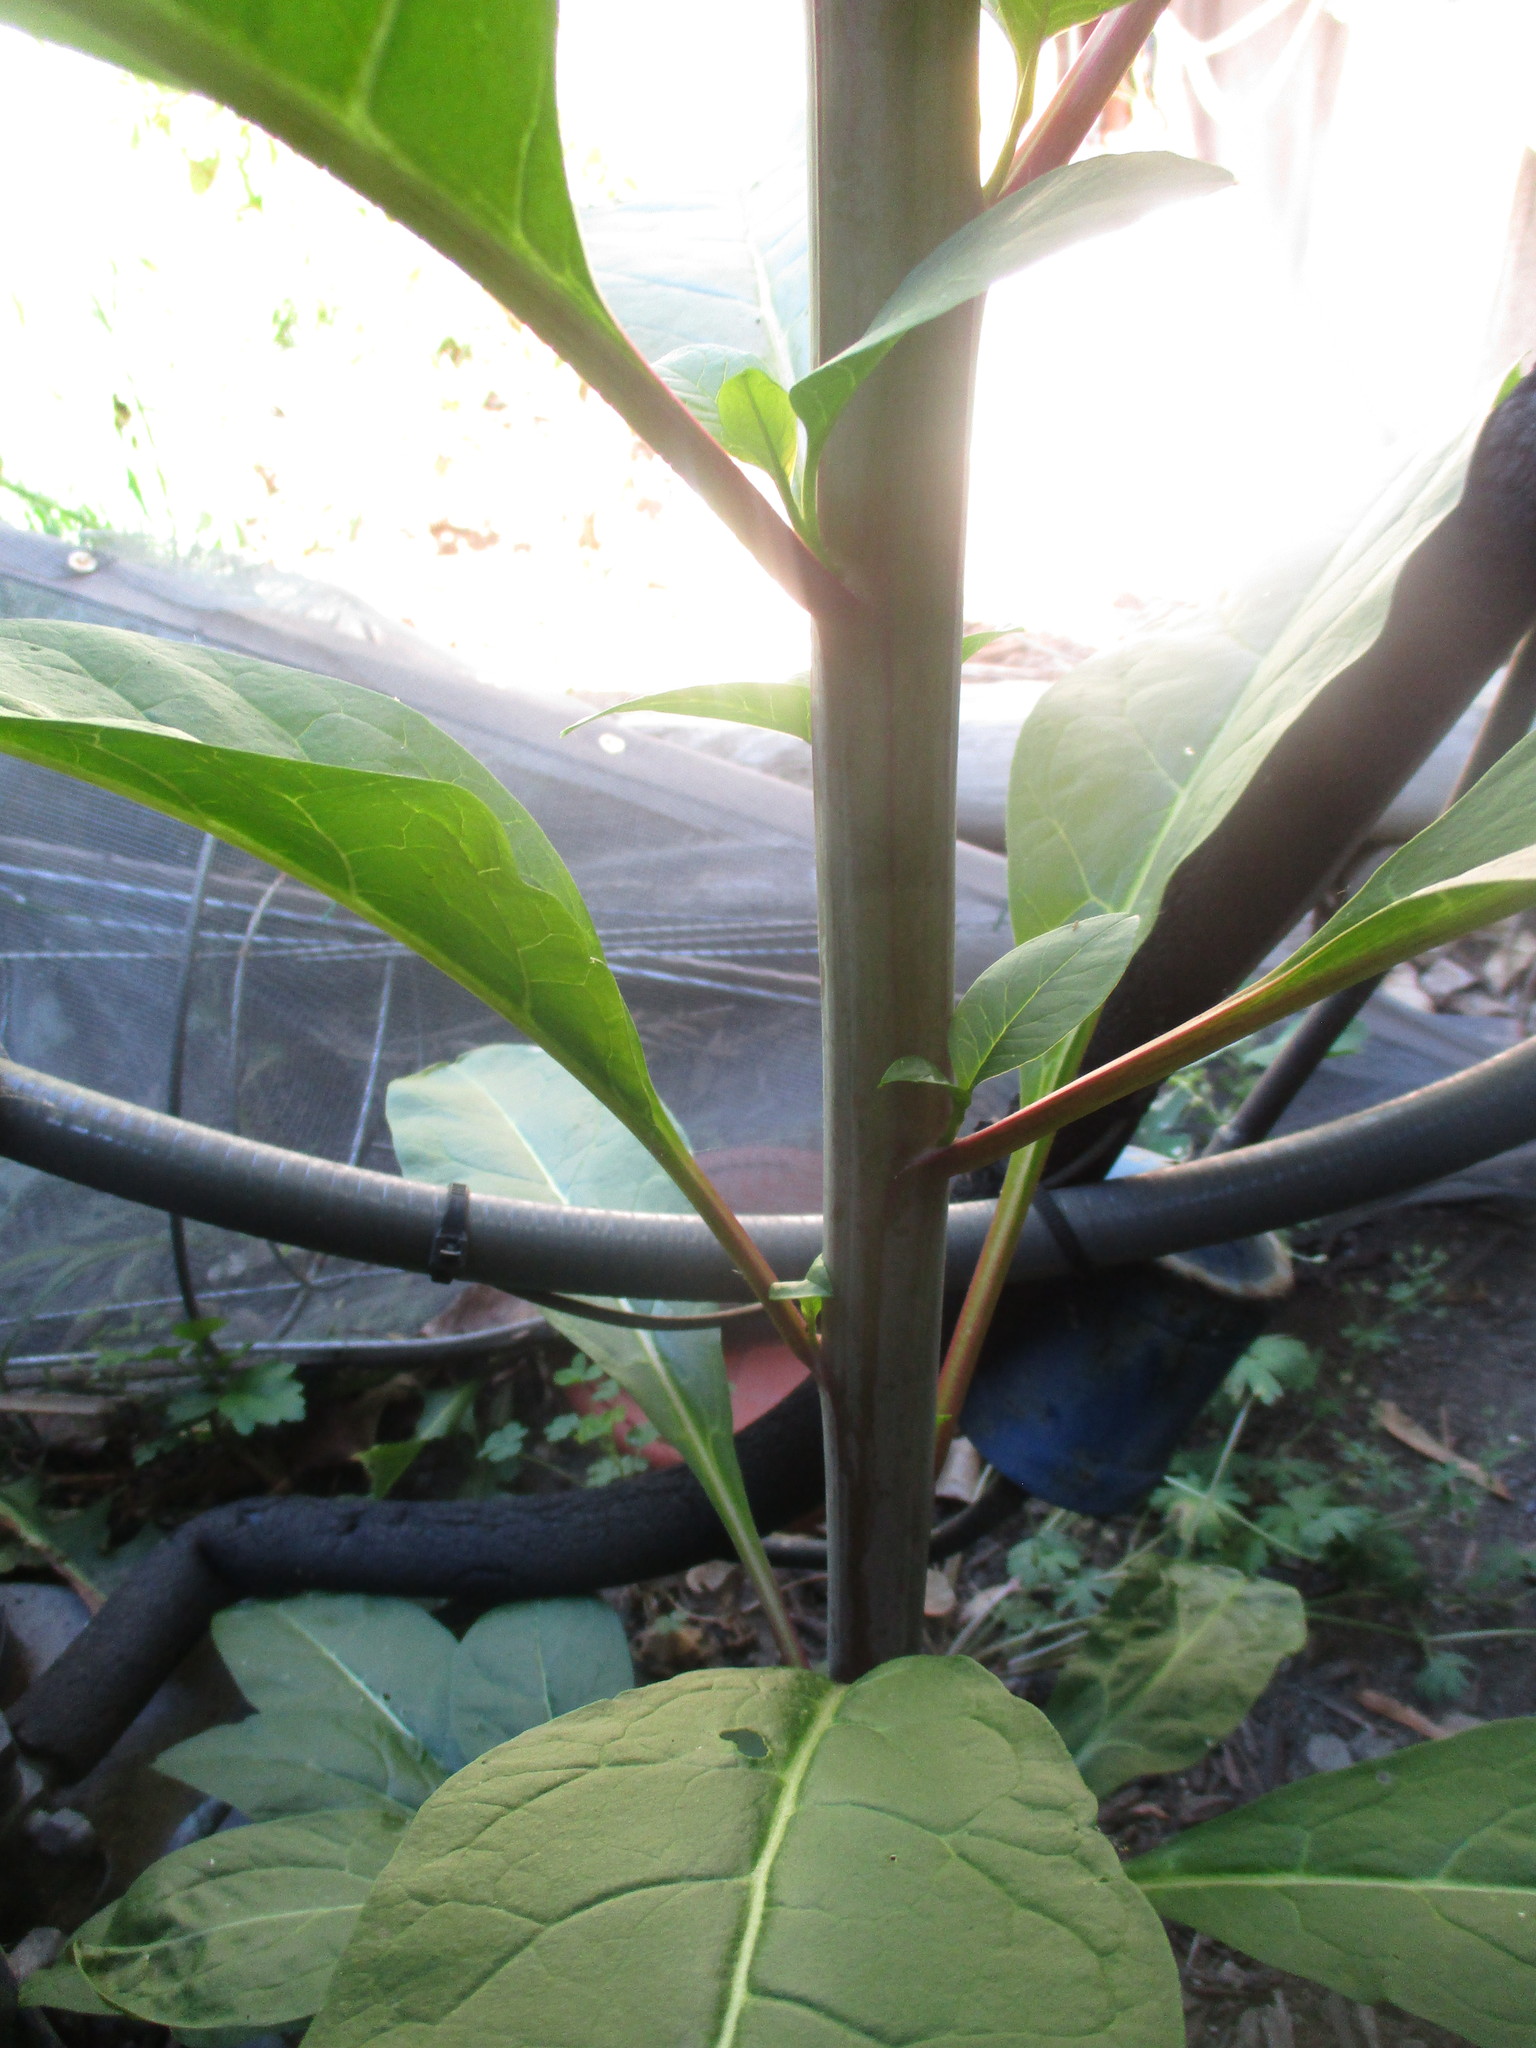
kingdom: Plantae
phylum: Tracheophyta
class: Magnoliopsida
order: Caryophyllales
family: Phytolaccaceae
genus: Phytolacca
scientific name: Phytolacca americana
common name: American pokeweed
